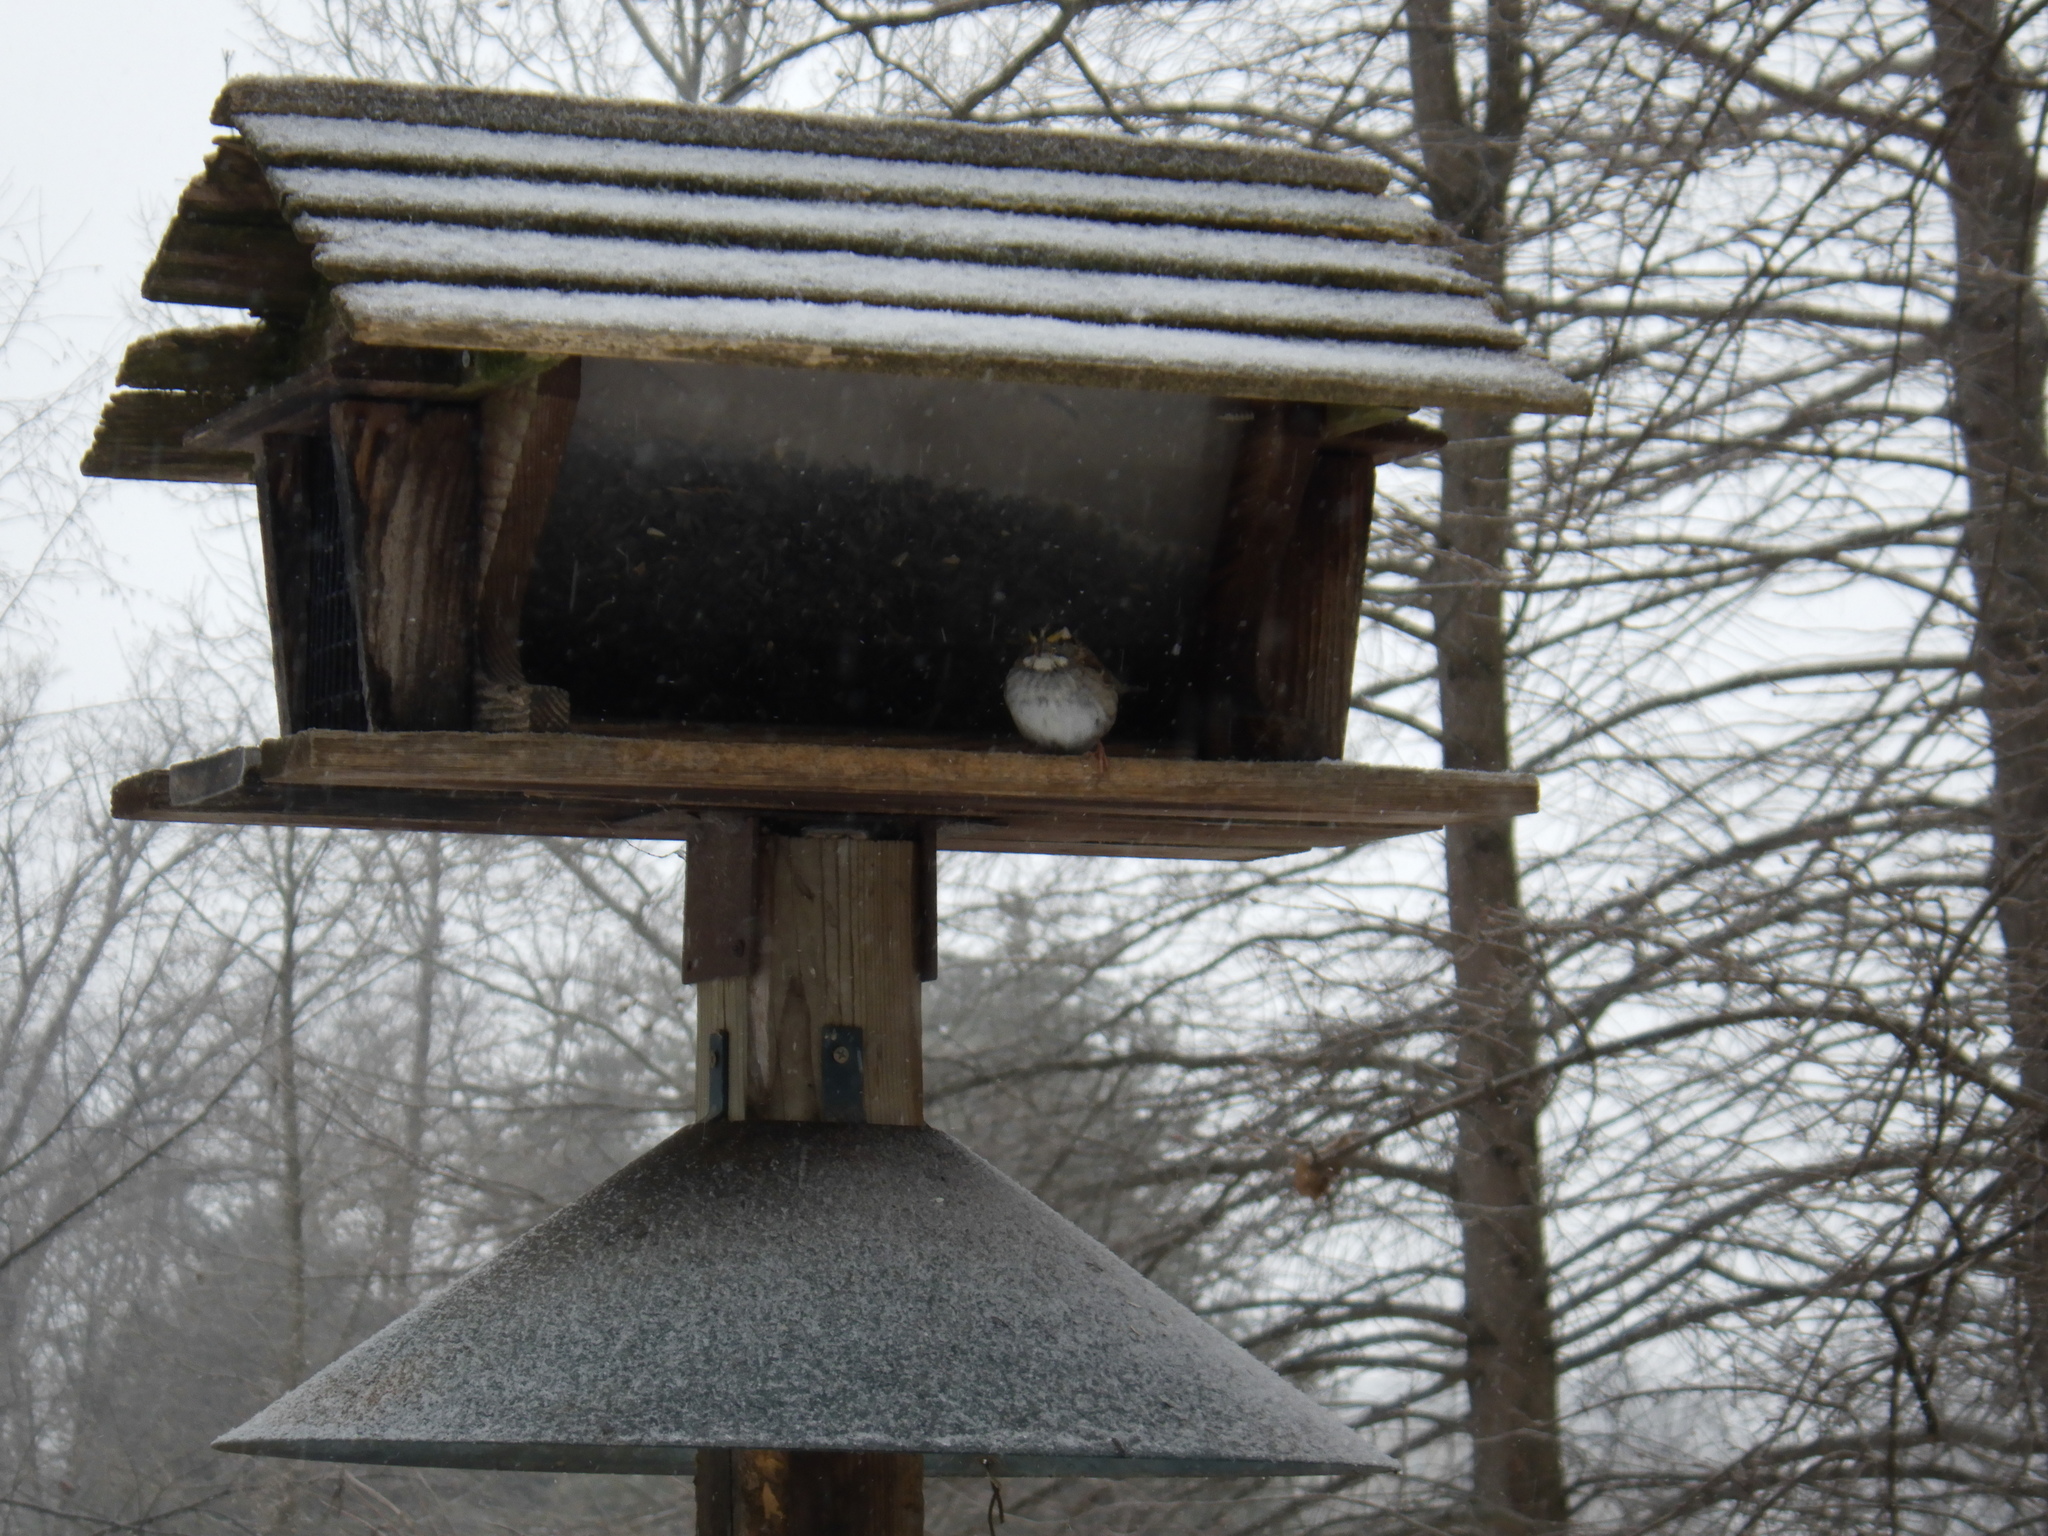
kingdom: Animalia
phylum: Chordata
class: Aves
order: Passeriformes
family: Passerellidae
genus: Zonotrichia
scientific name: Zonotrichia albicollis
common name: White-throated sparrow
